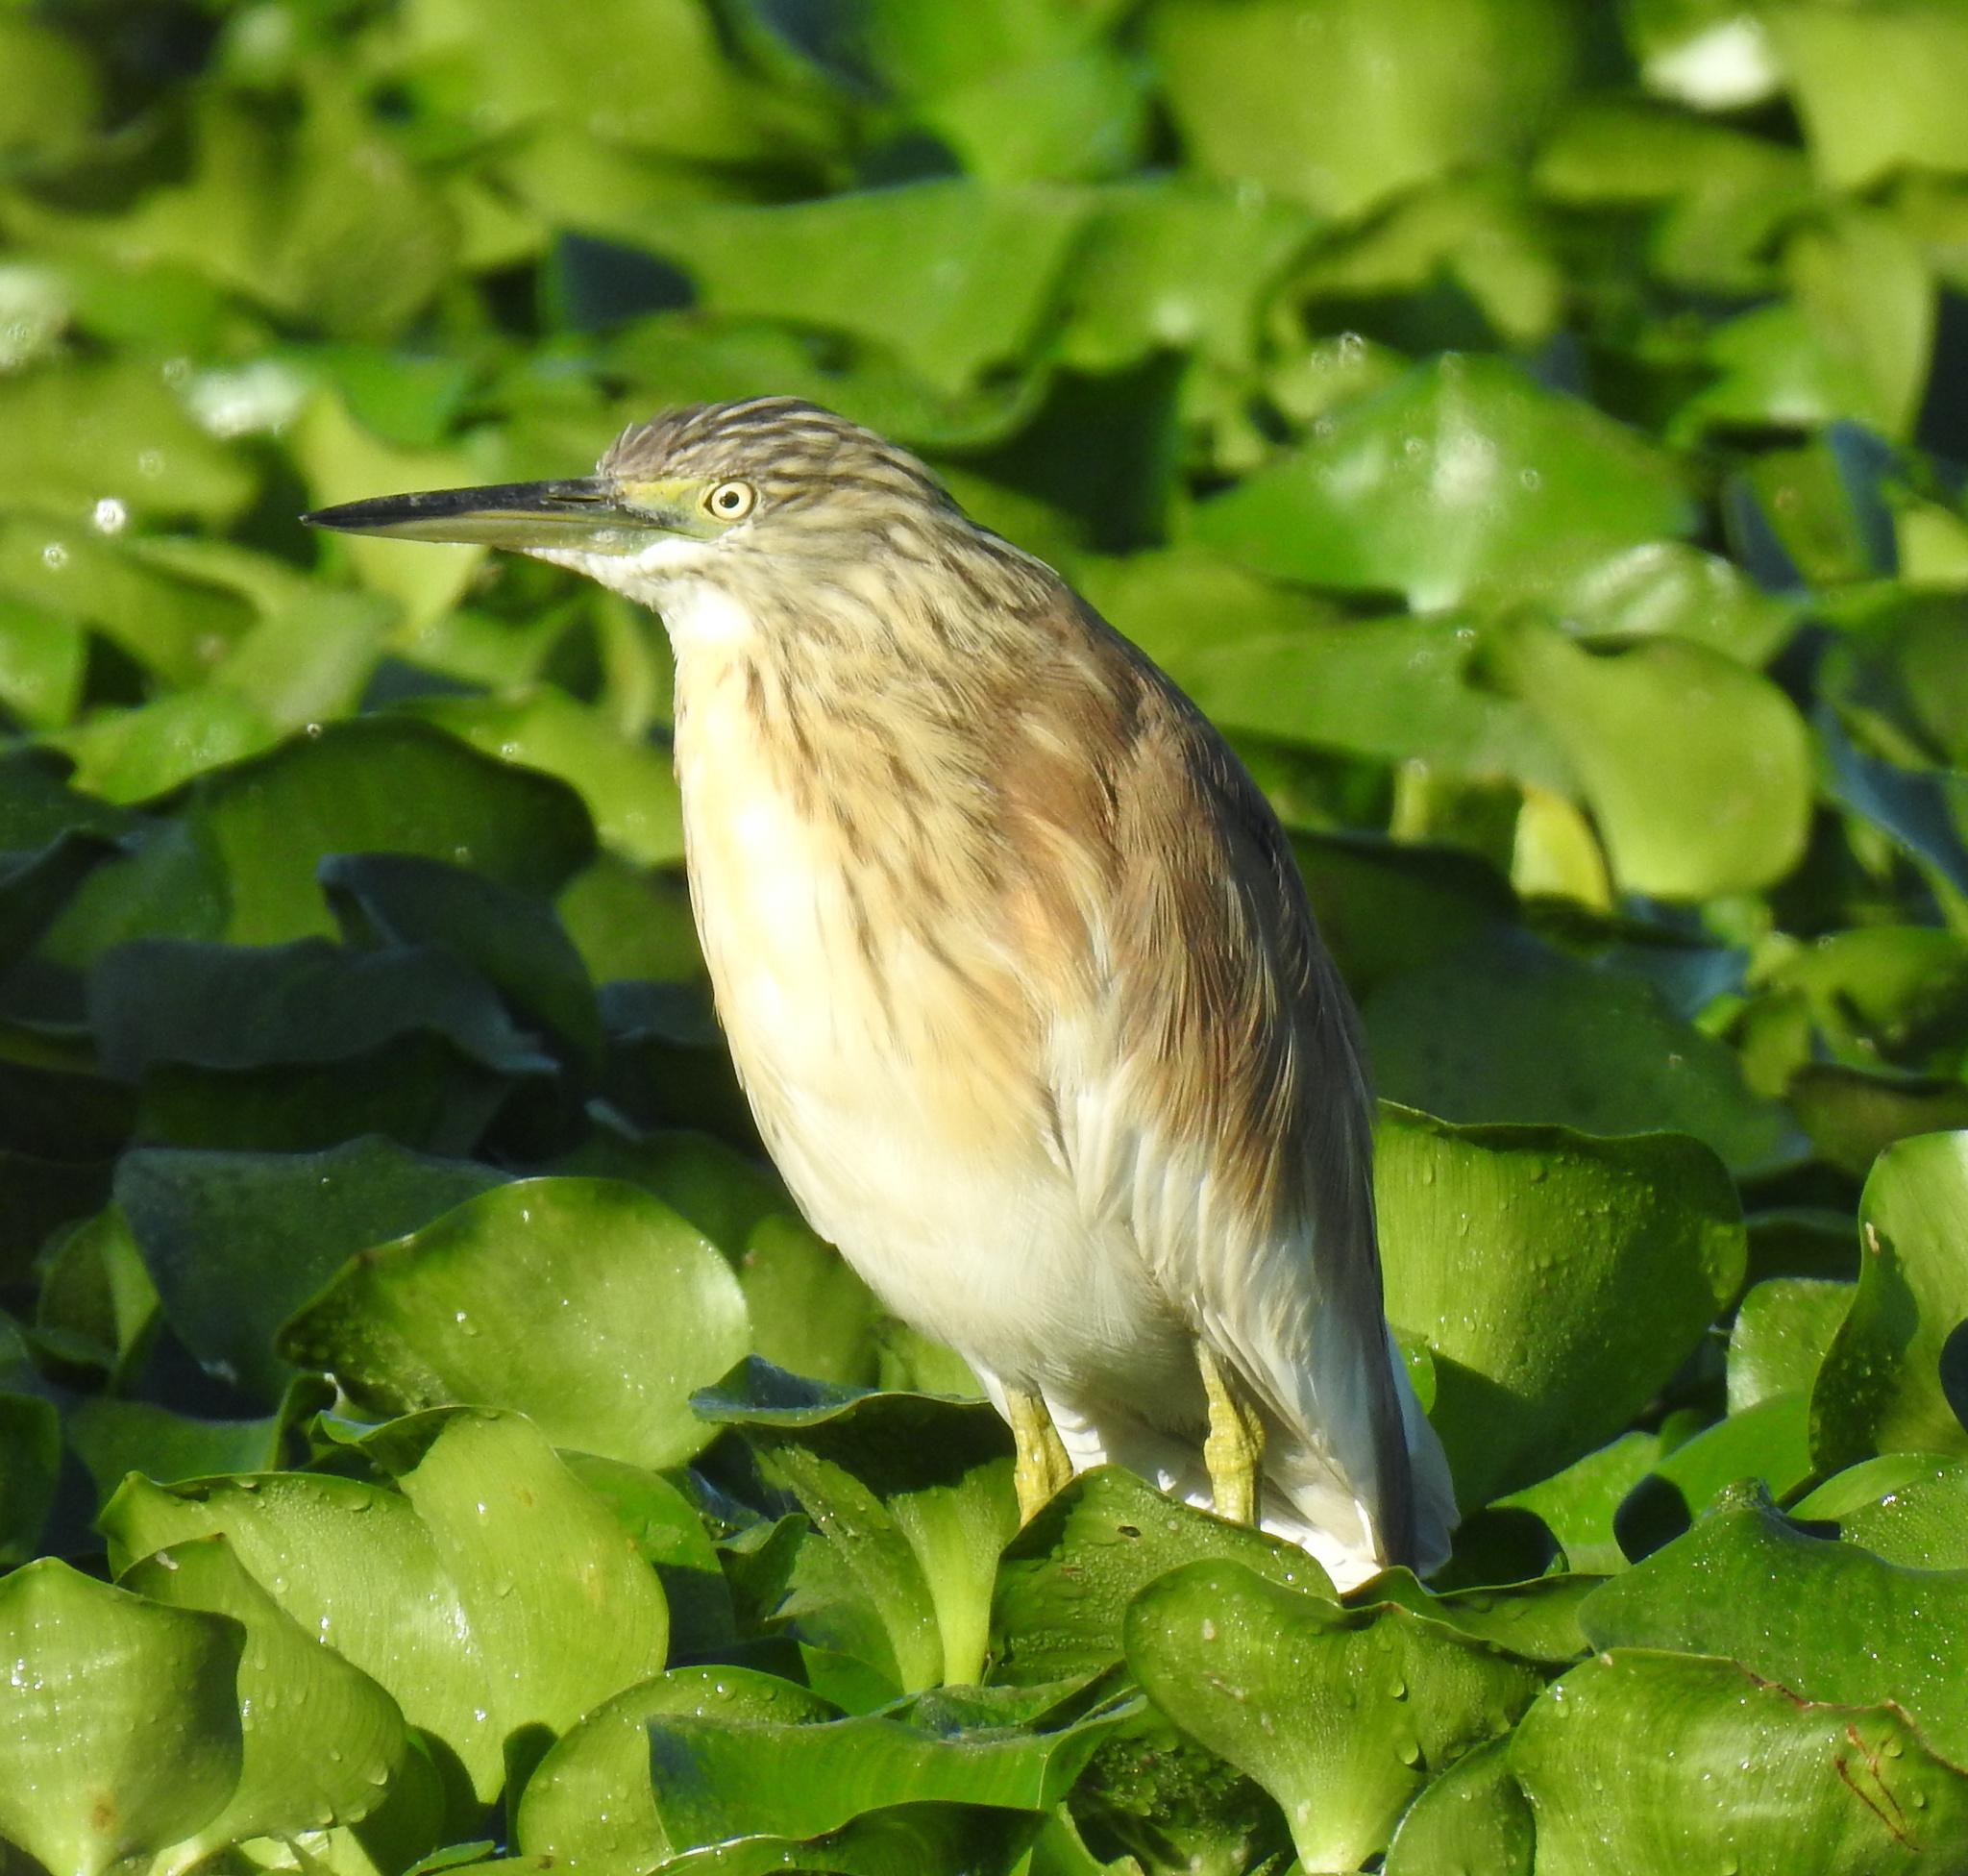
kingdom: Animalia
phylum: Chordata
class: Aves
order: Pelecaniformes
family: Ardeidae
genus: Ardeola
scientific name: Ardeola ralloides
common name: Squacco heron
